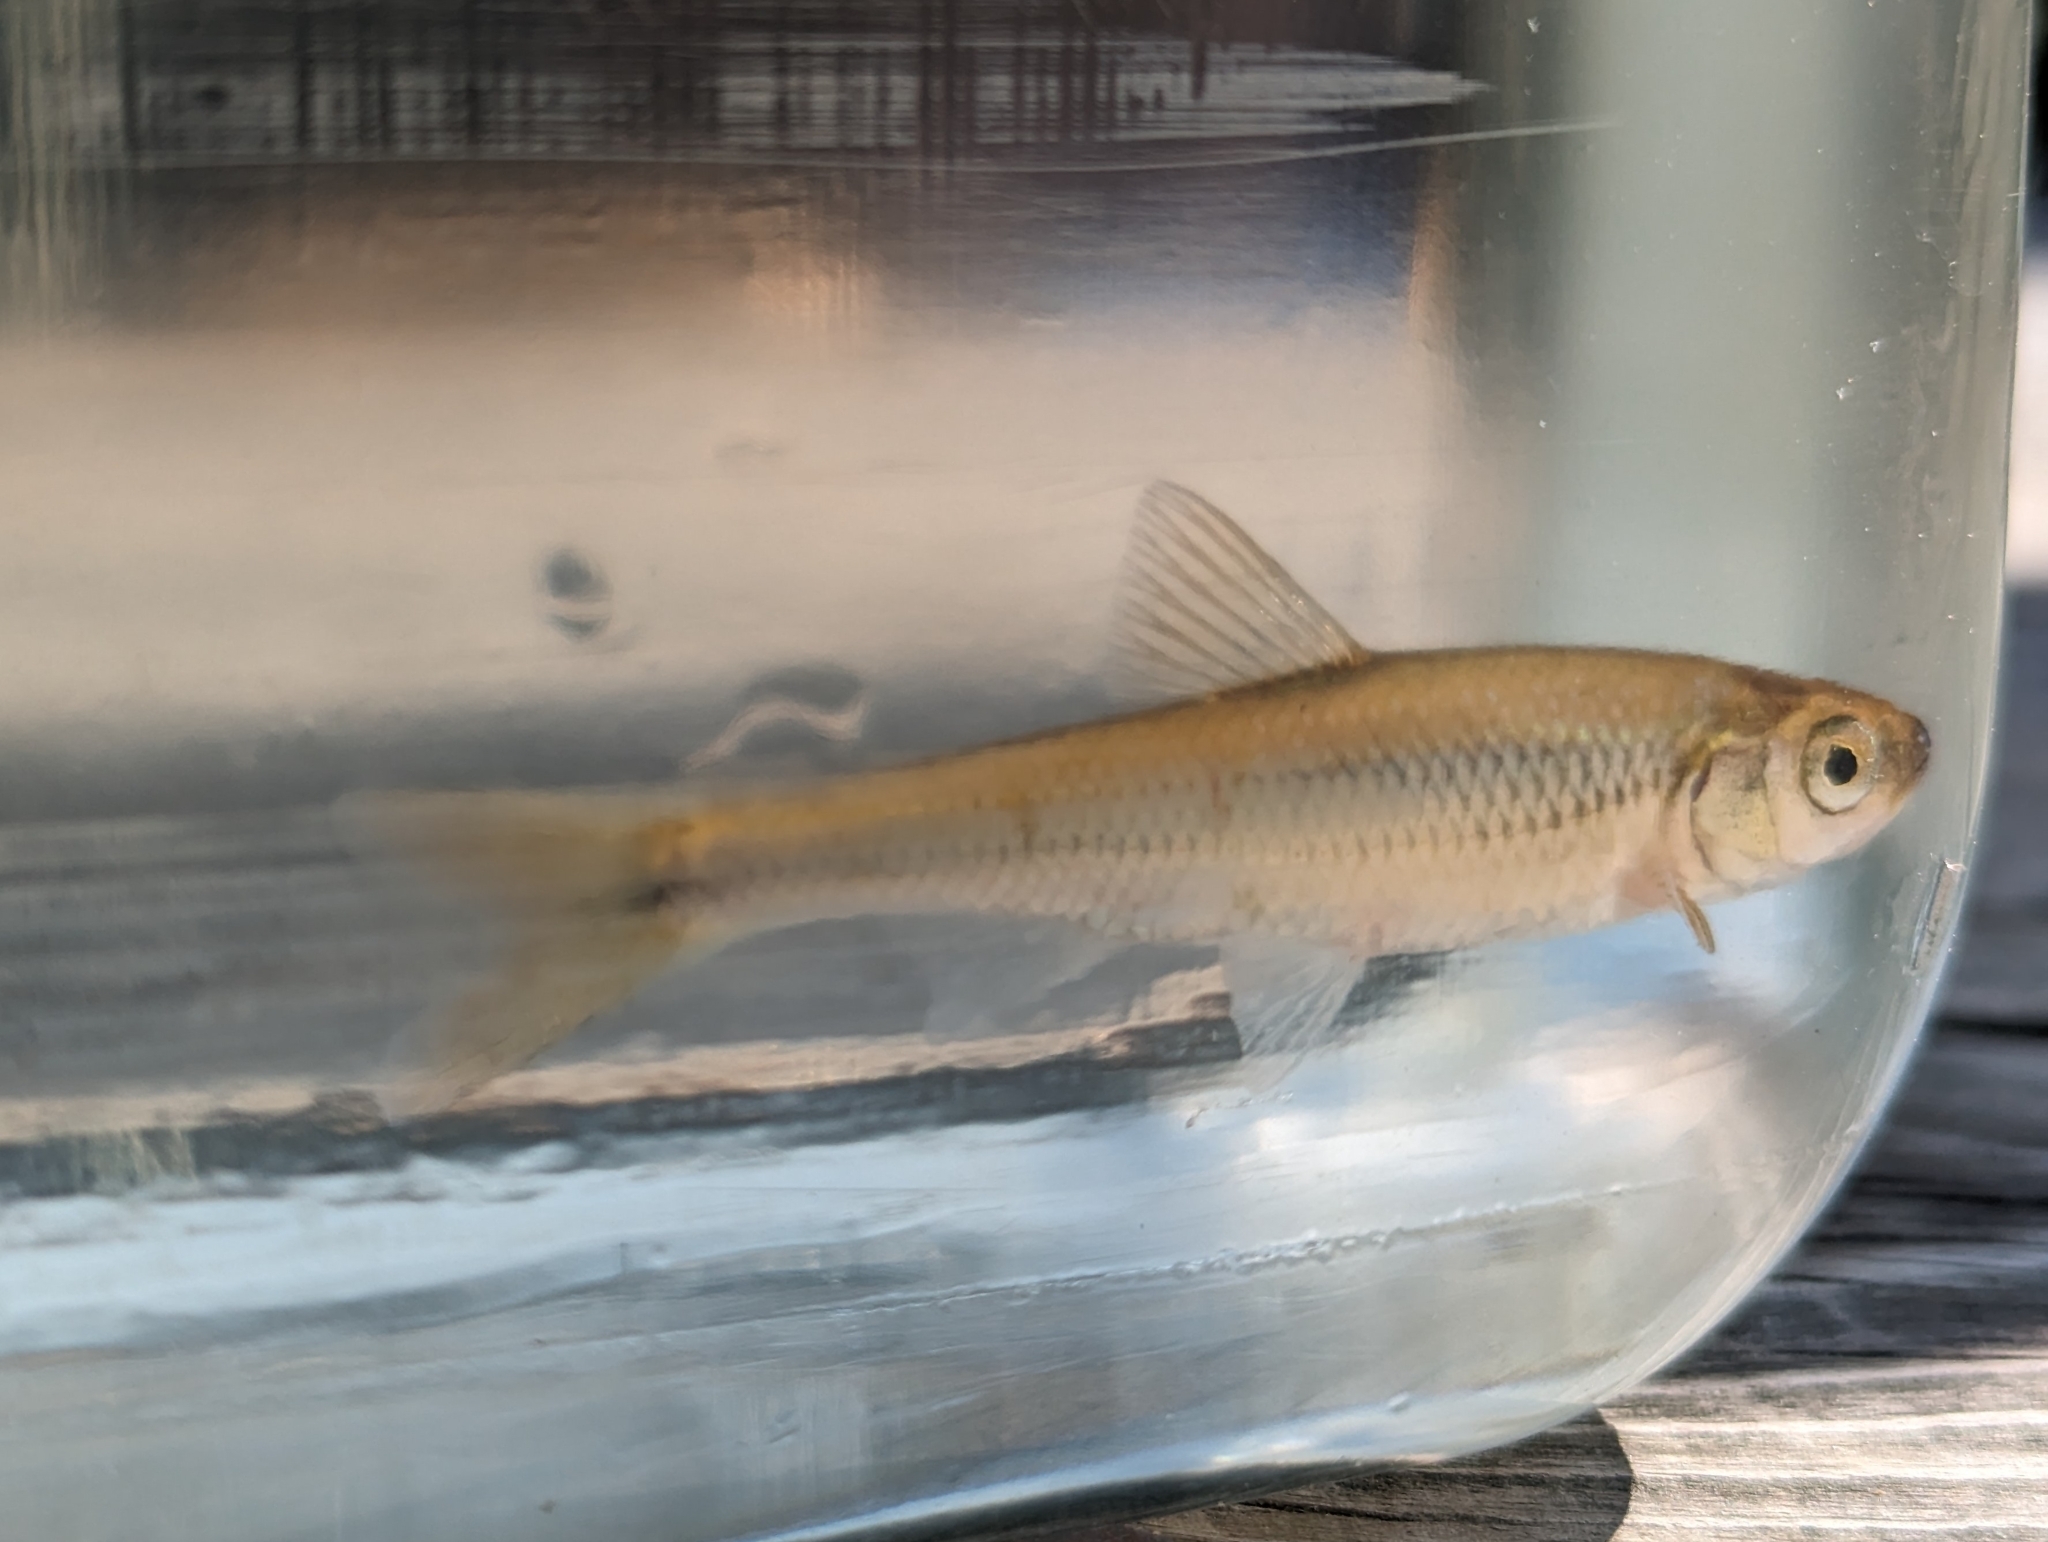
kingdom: Animalia
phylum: Chordata
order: Cypriniformes
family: Cyprinidae
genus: Luxilus
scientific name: Luxilus cornutus
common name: Common shiner
